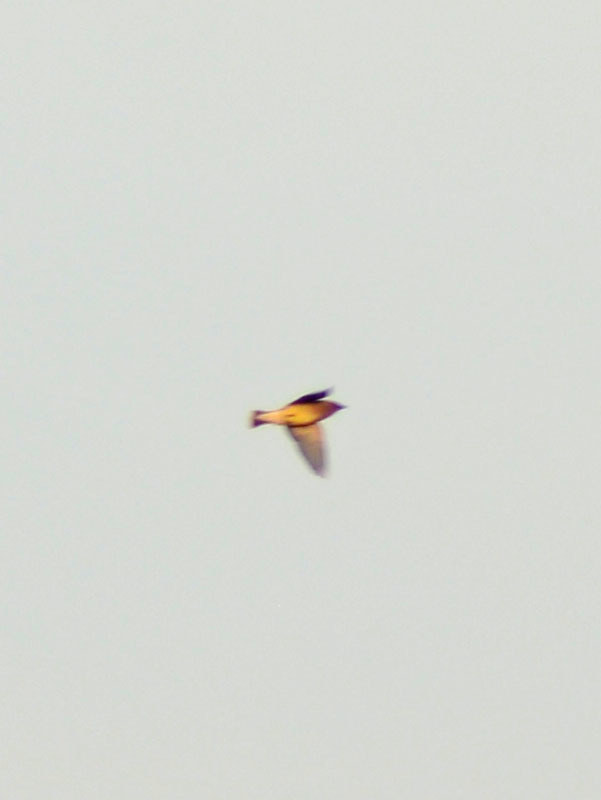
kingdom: Animalia
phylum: Chordata
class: Aves
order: Passeriformes
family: Bombycillidae
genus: Bombycilla
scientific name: Bombycilla cedrorum
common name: Cedar waxwing
